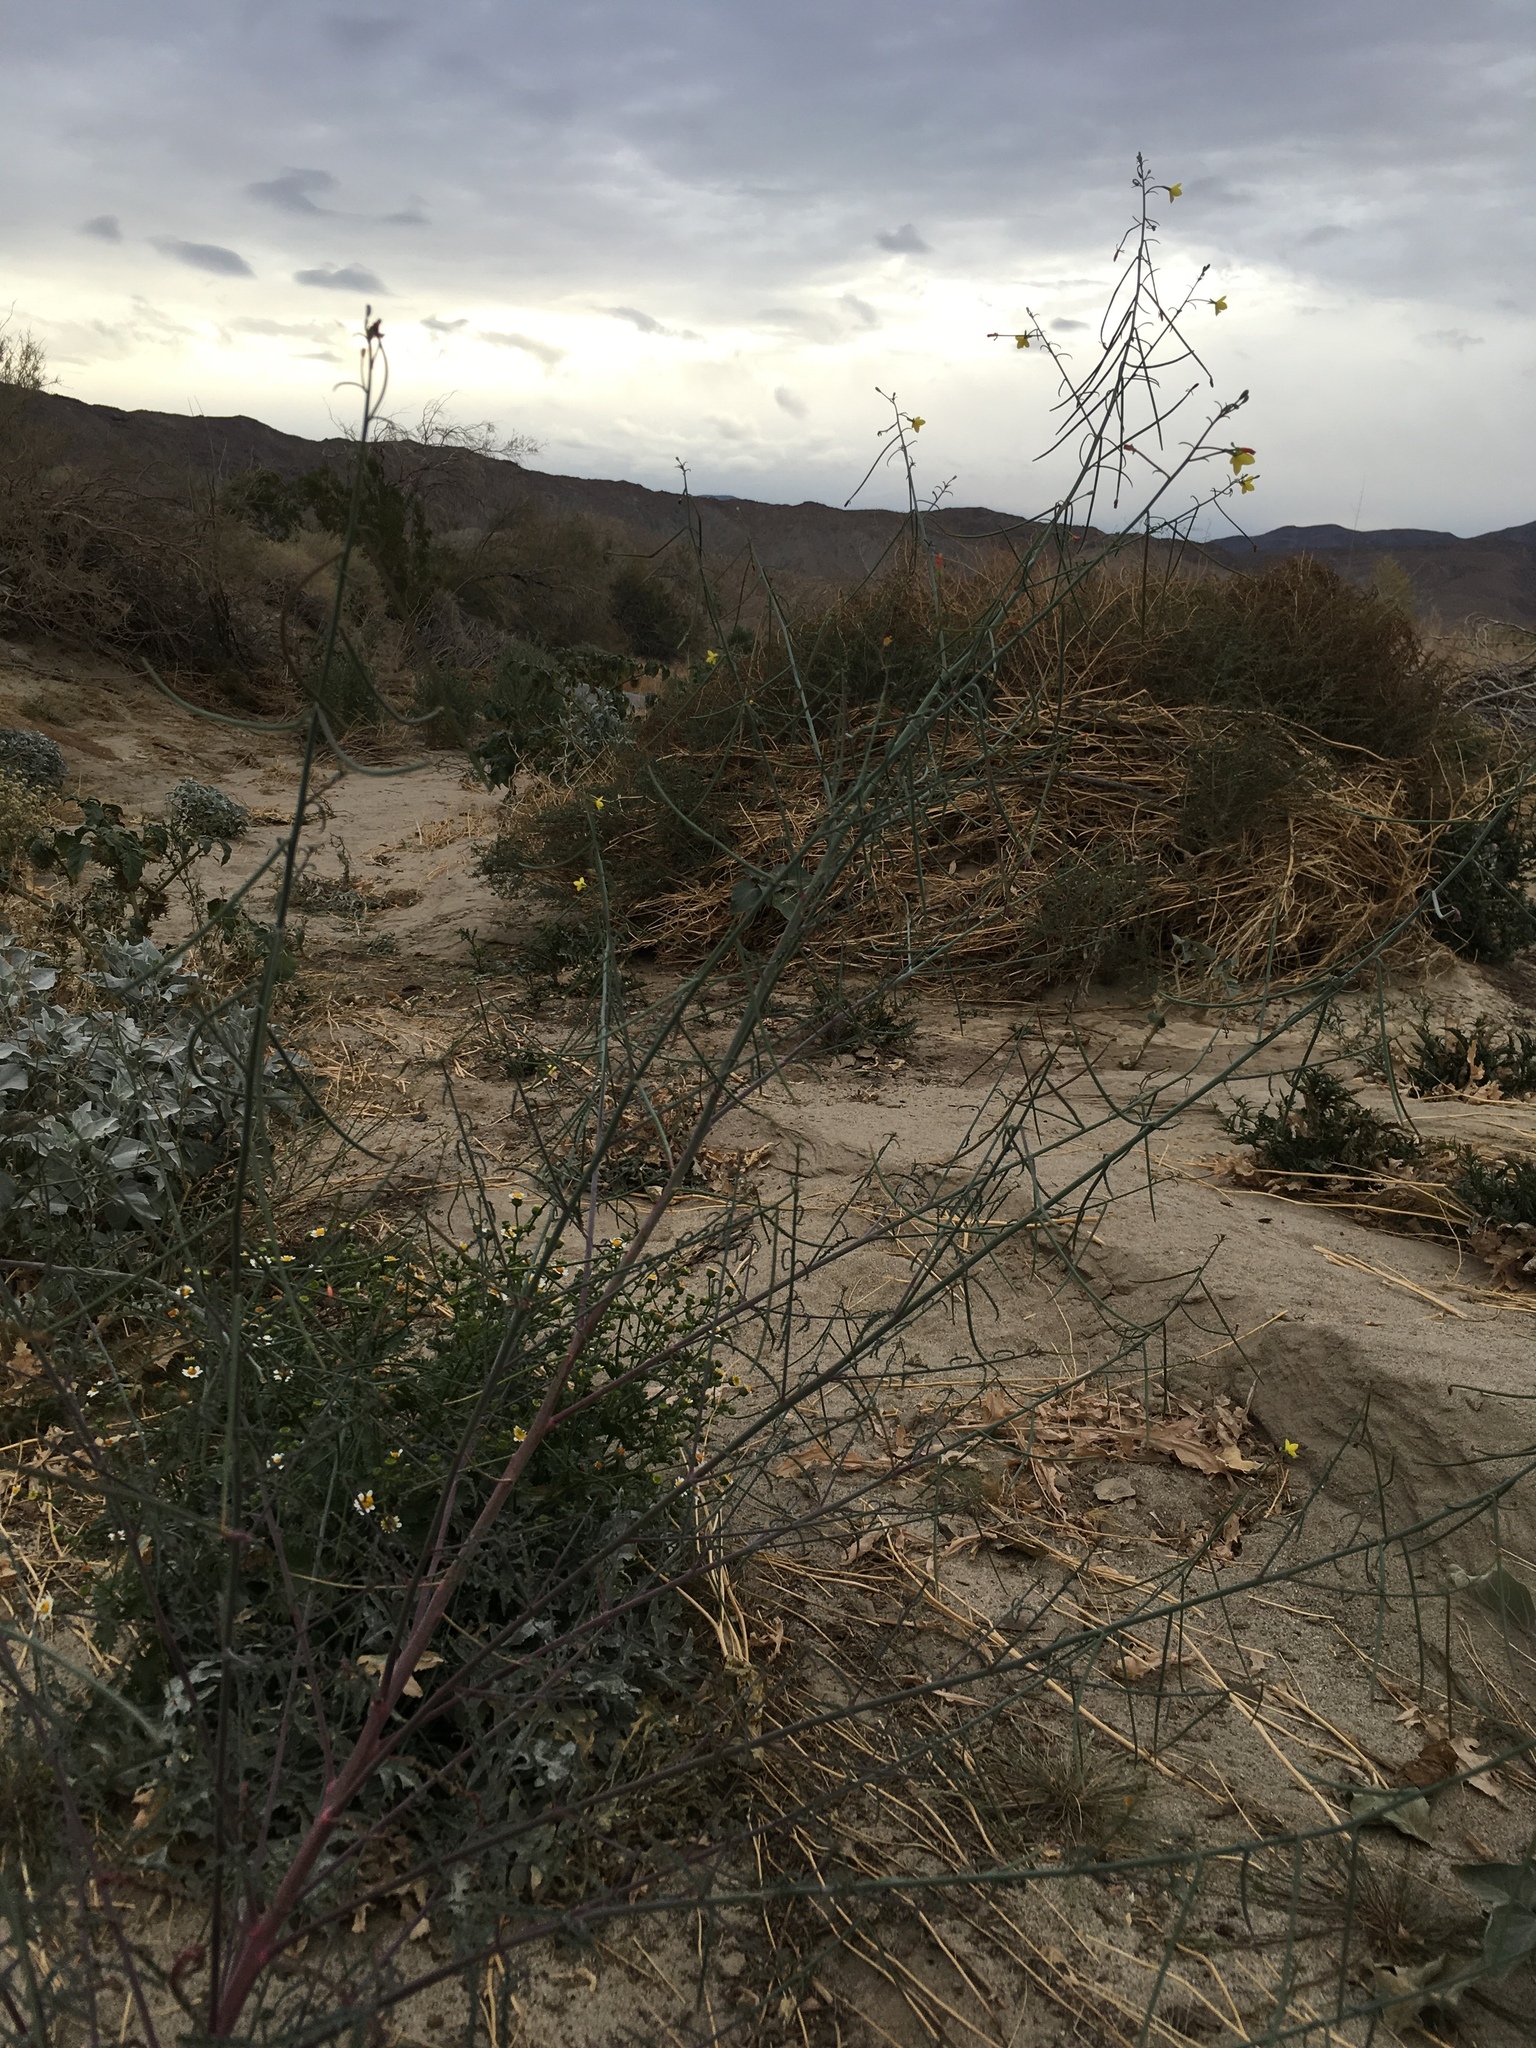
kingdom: Plantae
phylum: Tracheophyta
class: Magnoliopsida
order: Myrtales
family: Onagraceae
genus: Eulobus
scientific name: Eulobus californicus
